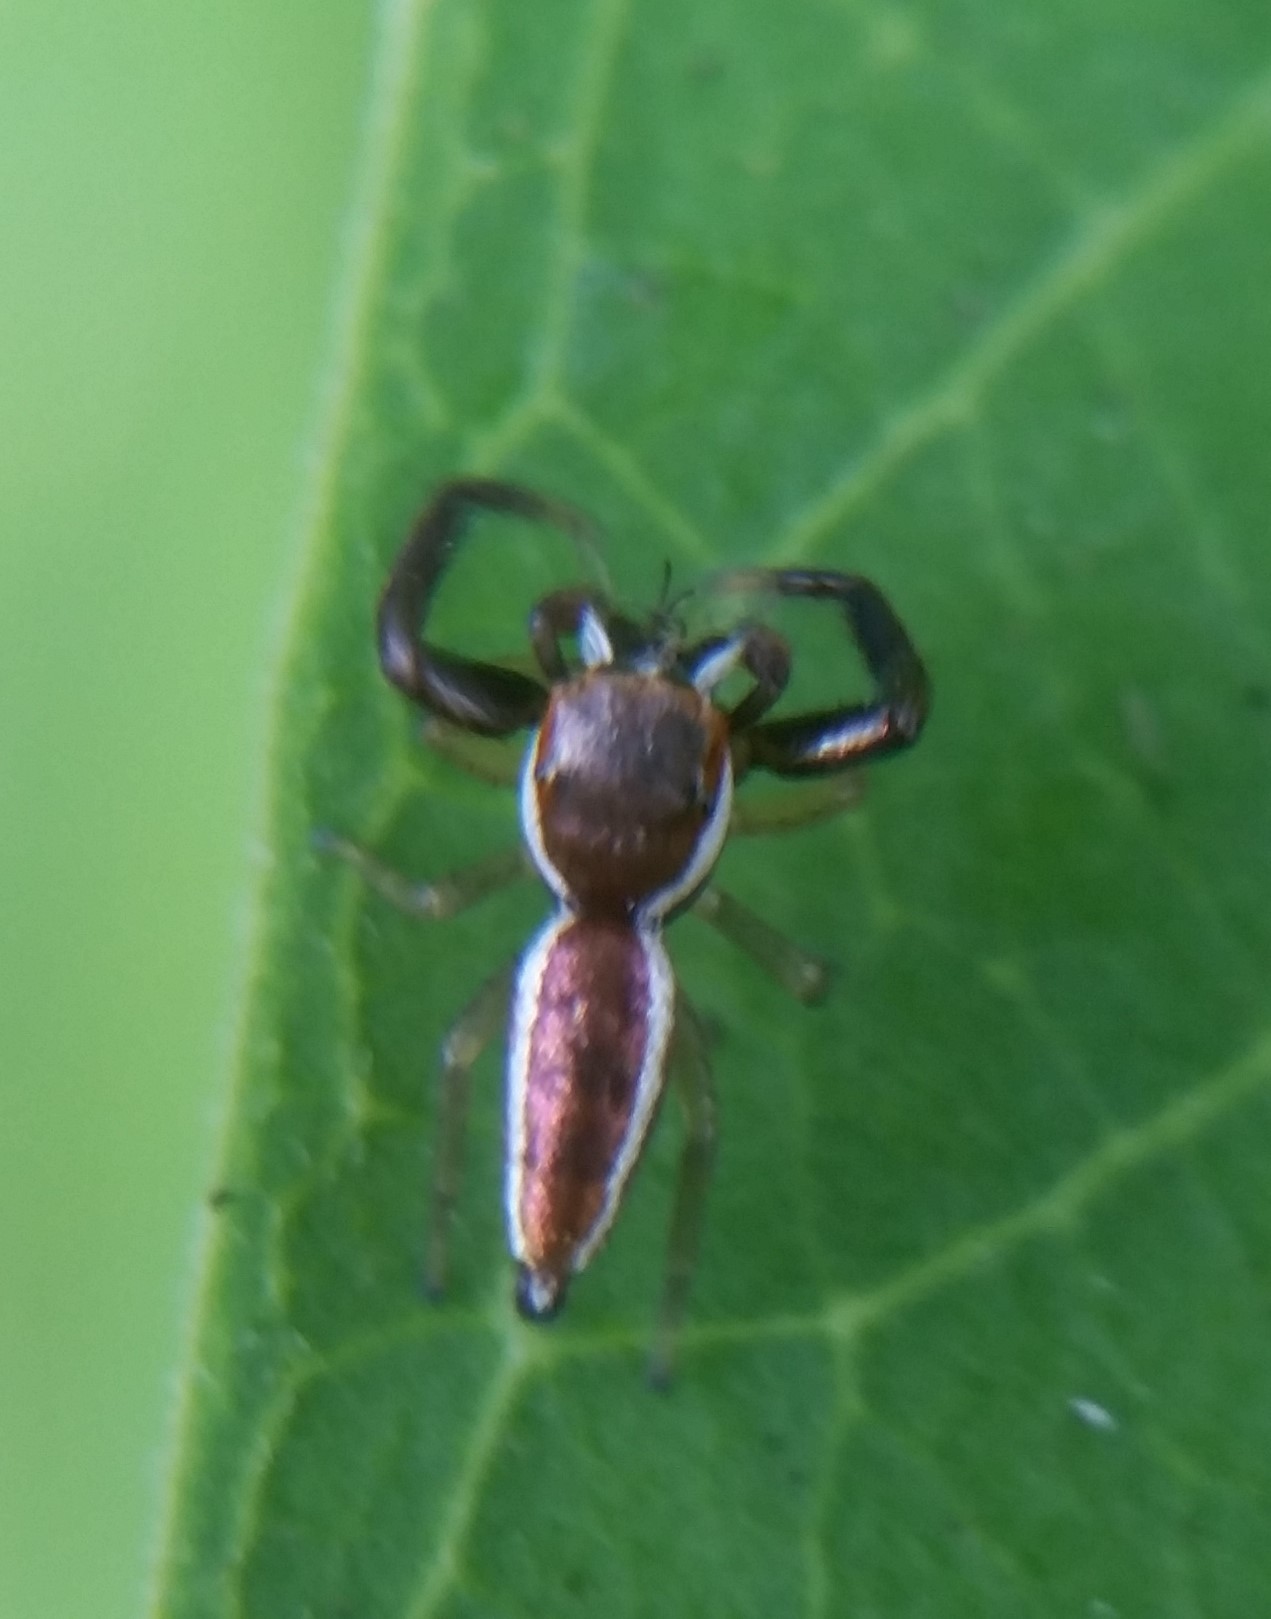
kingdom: Animalia
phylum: Arthropoda
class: Arachnida
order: Araneae
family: Salticidae
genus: Hentzia
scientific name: Hentzia palmarum
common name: Common hentz jumping spider
